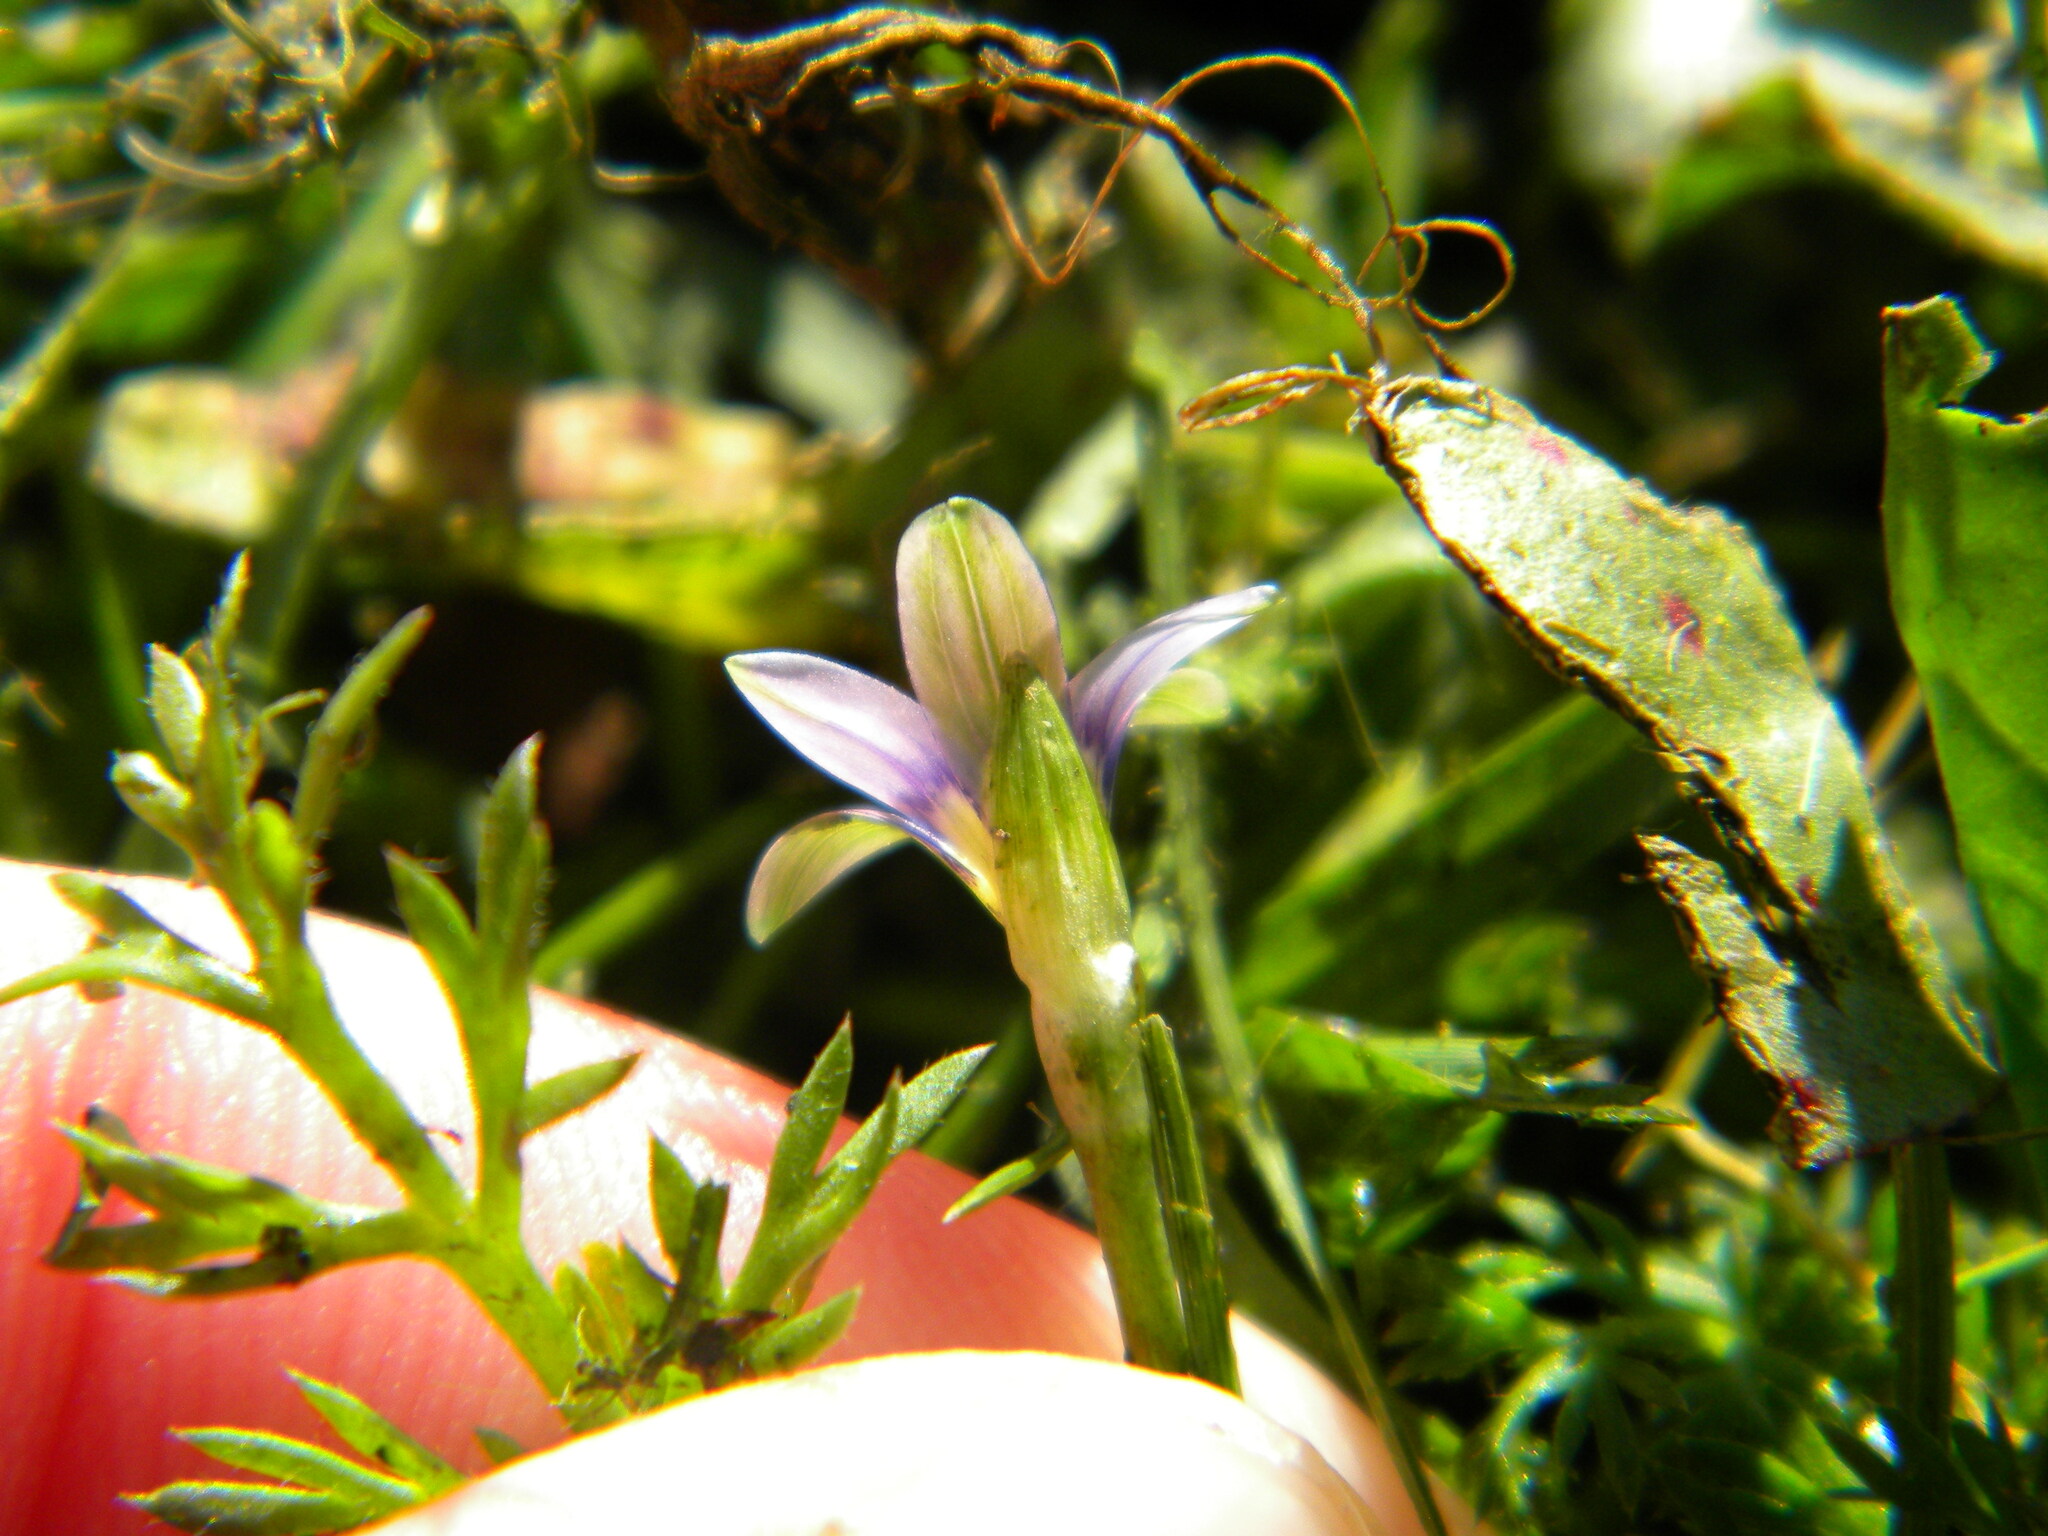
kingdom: Plantae
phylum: Tracheophyta
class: Liliopsida
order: Asparagales
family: Iridaceae
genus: Romulea
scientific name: Romulea minutiflora
